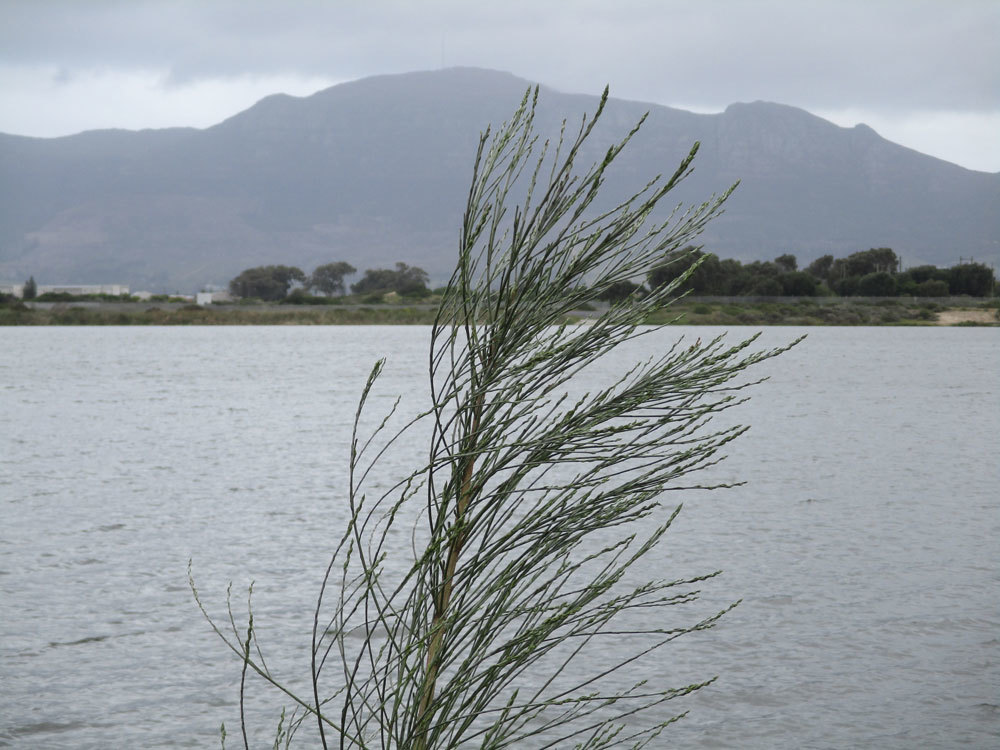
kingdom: Plantae
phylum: Tracheophyta
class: Magnoliopsida
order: Fabales
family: Fabaceae
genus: Psoralea
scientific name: Psoralea aphylla
